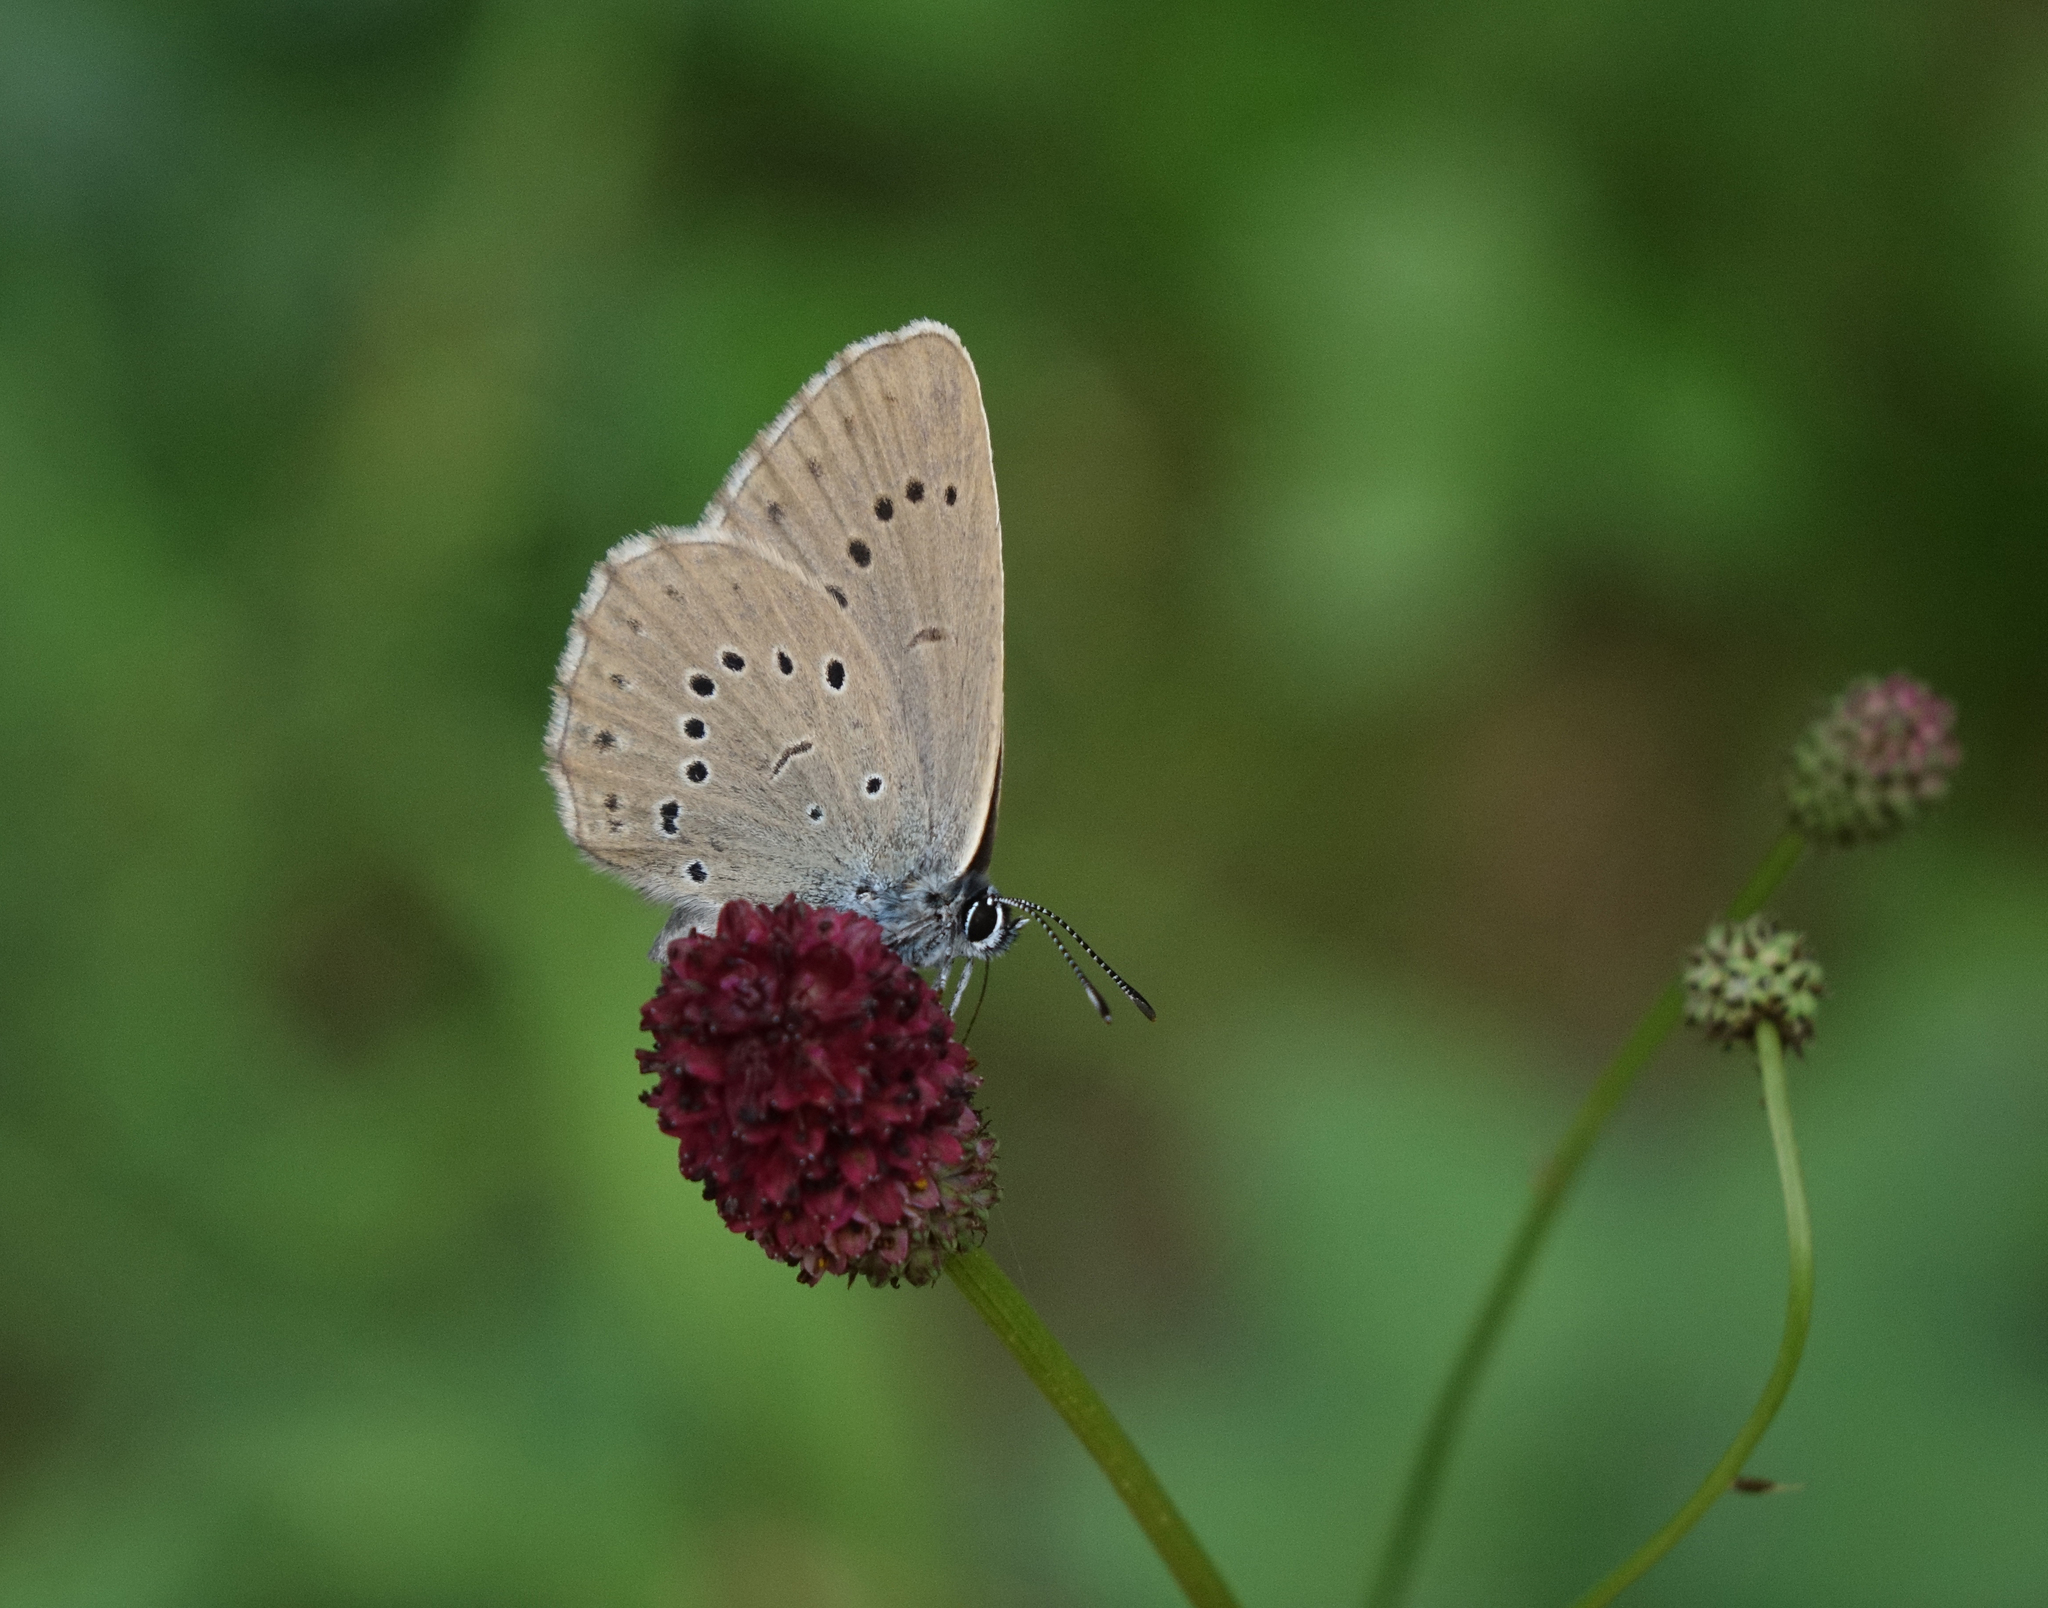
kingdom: Plantae
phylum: Tracheophyta
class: Magnoliopsida
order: Rosales
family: Rosaceae
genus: Sanguisorba
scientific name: Sanguisorba officinalis
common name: Great burnet
